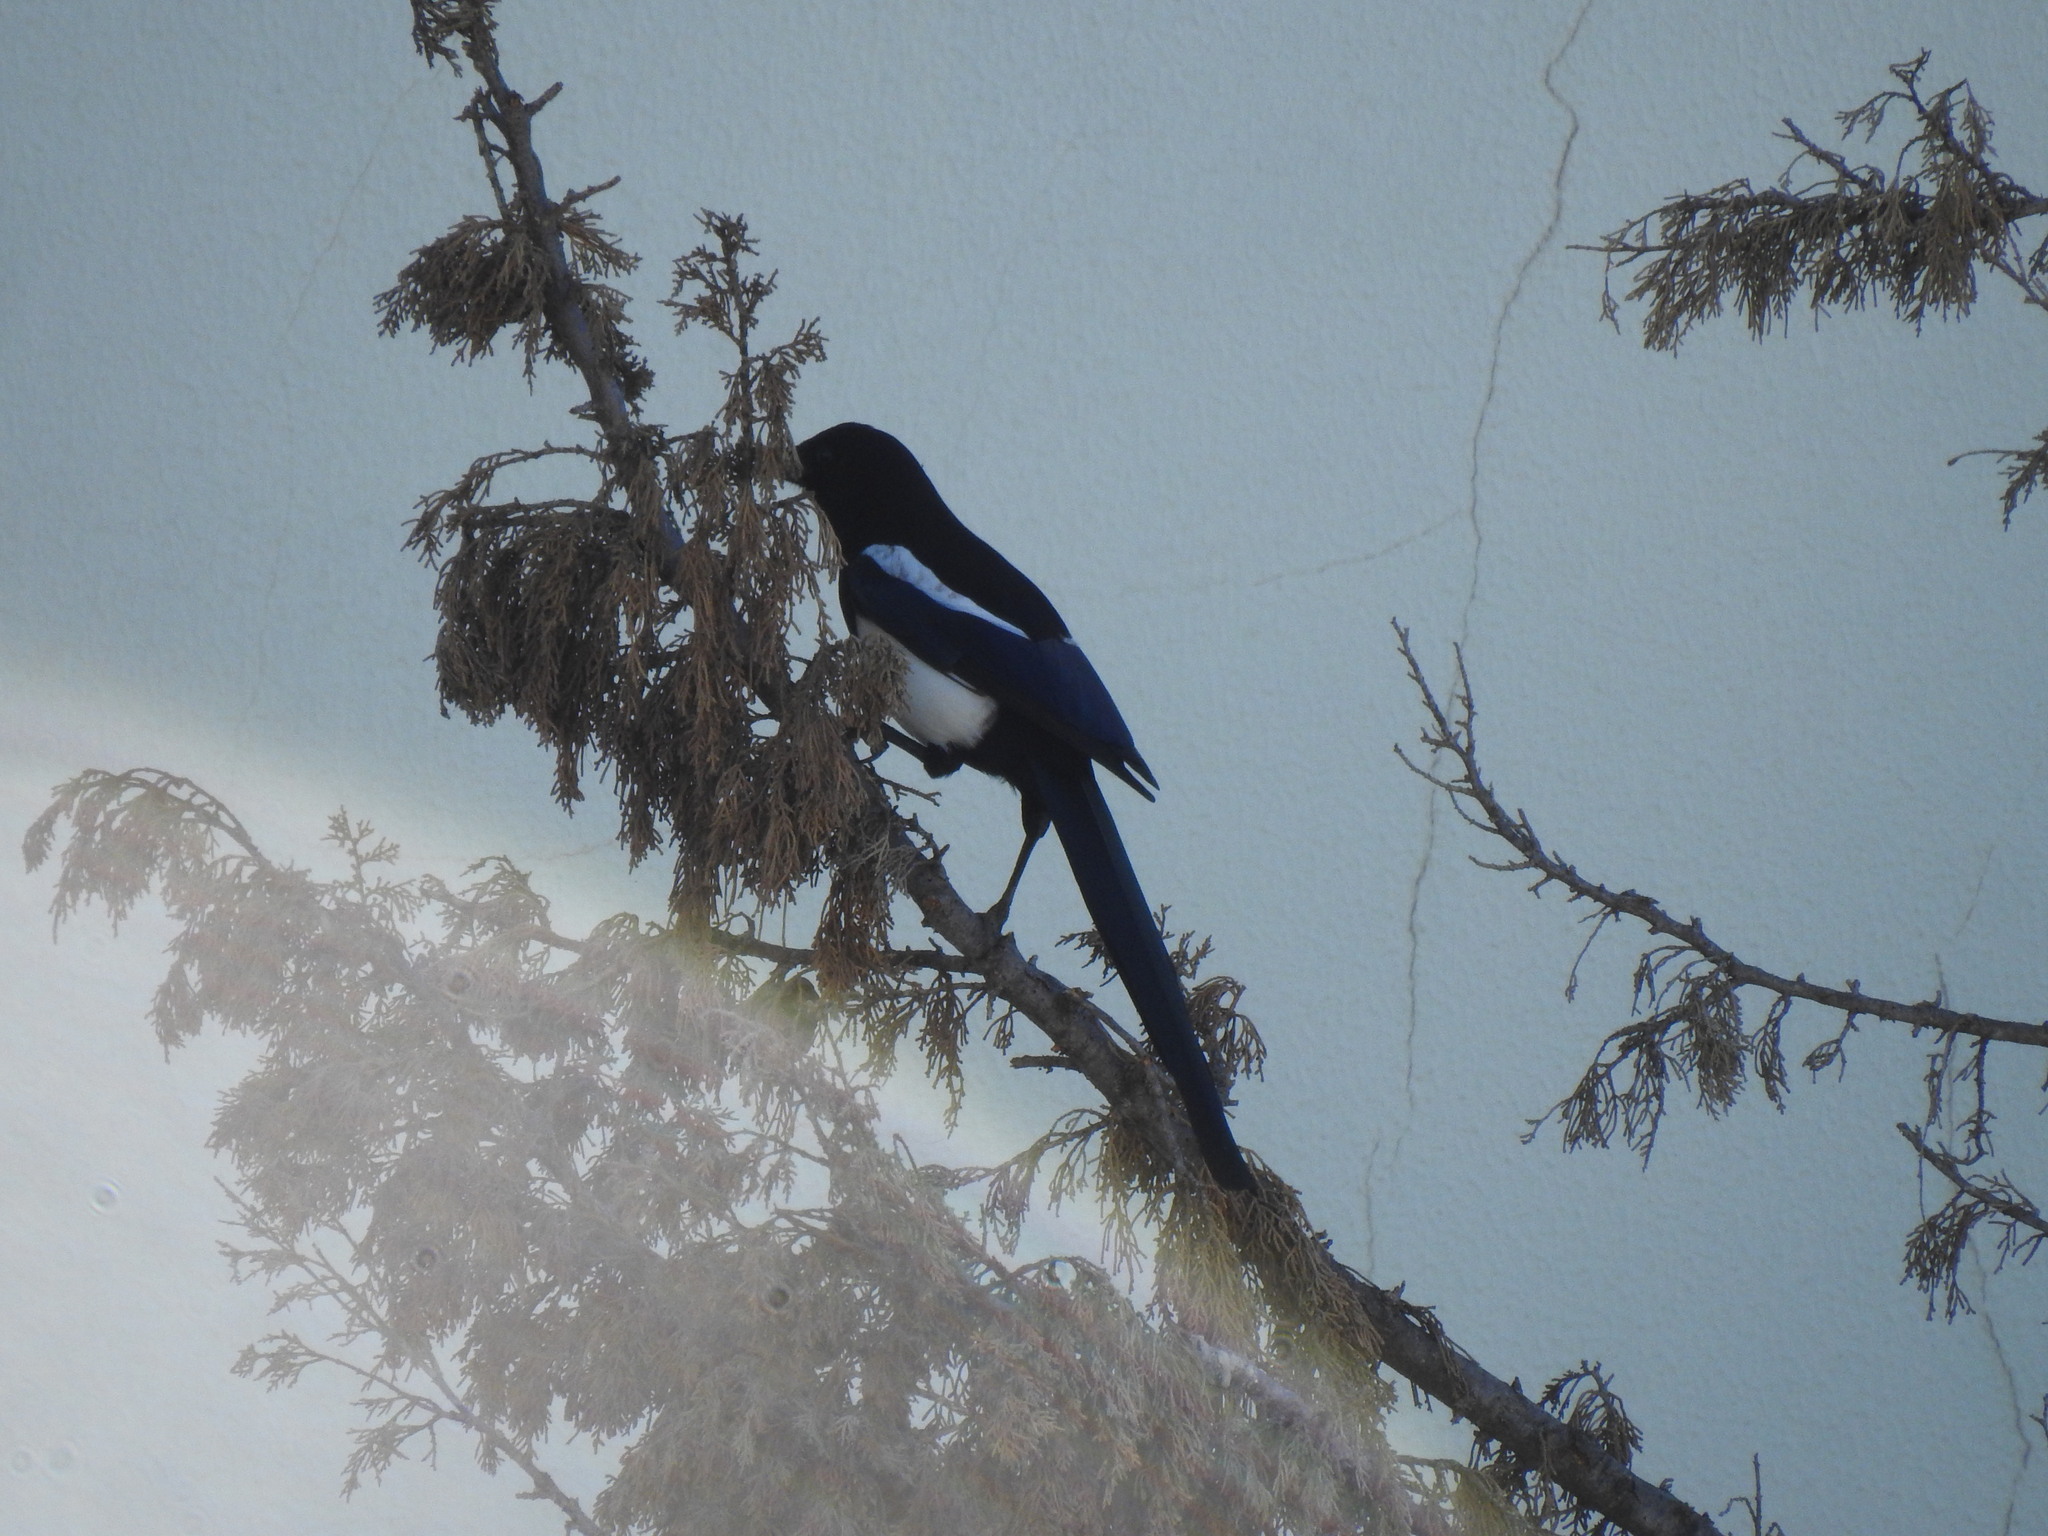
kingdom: Animalia
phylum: Chordata
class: Aves
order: Passeriformes
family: Corvidae
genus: Pica
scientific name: Pica pica
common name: Eurasian magpie
